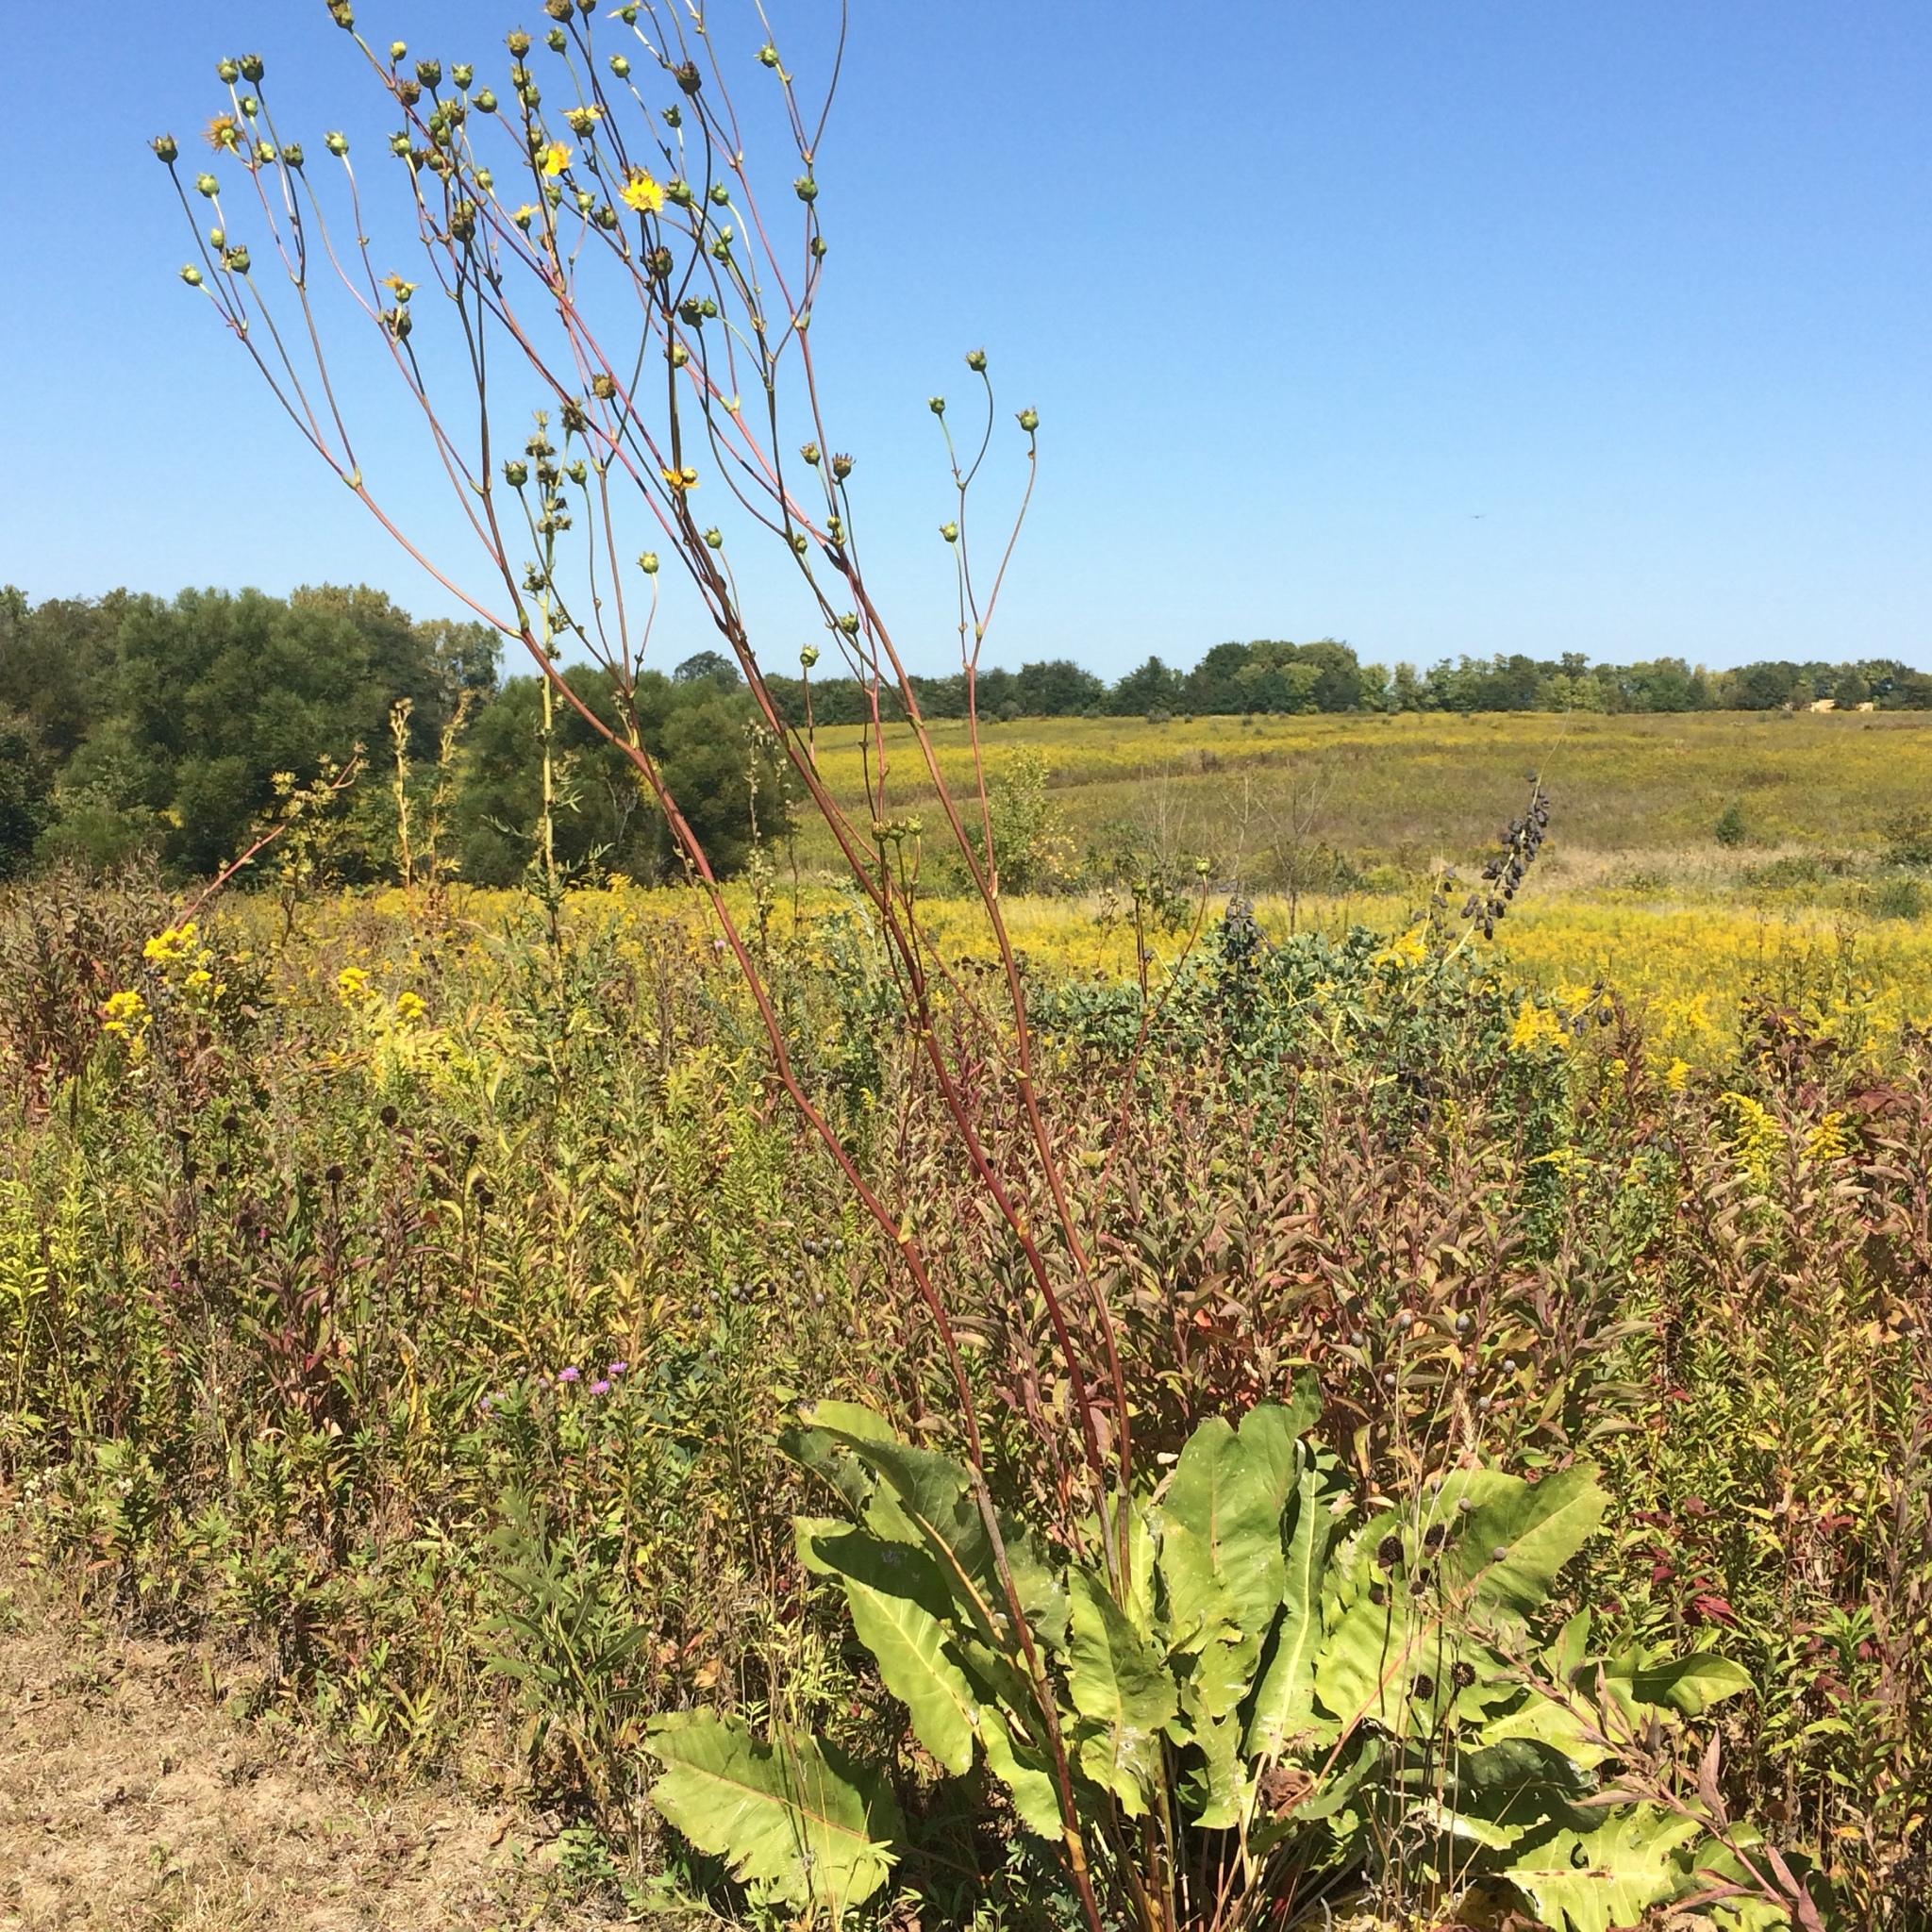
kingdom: Plantae
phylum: Tracheophyta
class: Magnoliopsida
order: Asterales
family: Asteraceae
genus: Silphium
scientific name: Silphium terebinthinaceum
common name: Basal-leaf rosinweed
